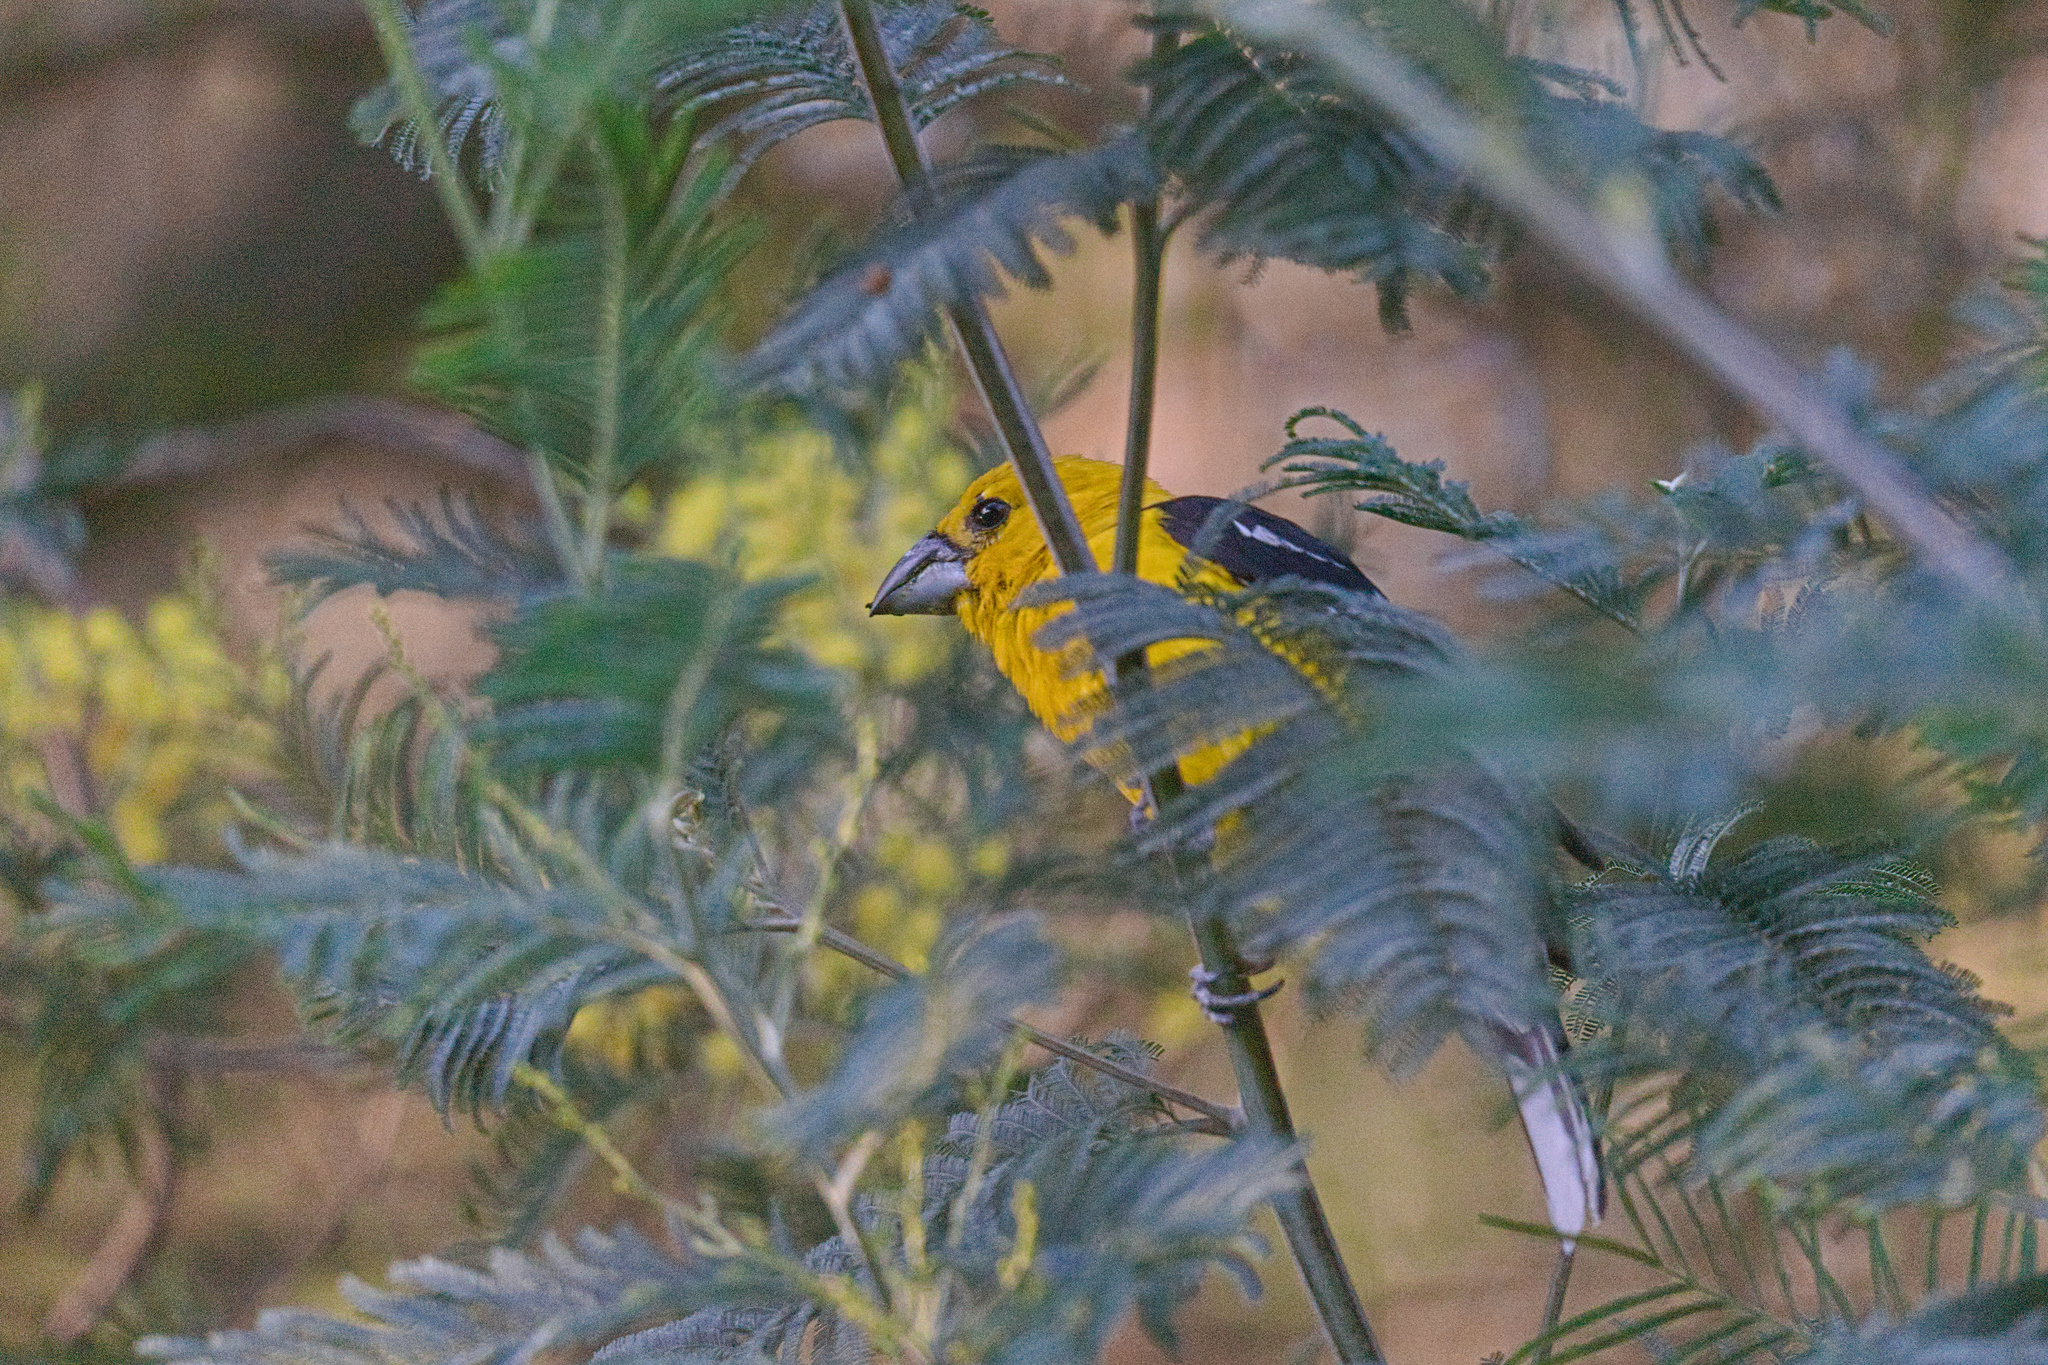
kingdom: Animalia
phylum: Chordata
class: Aves
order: Passeriformes
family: Cardinalidae
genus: Pheucticus
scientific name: Pheucticus chrysogaster
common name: Golden grosbeak
